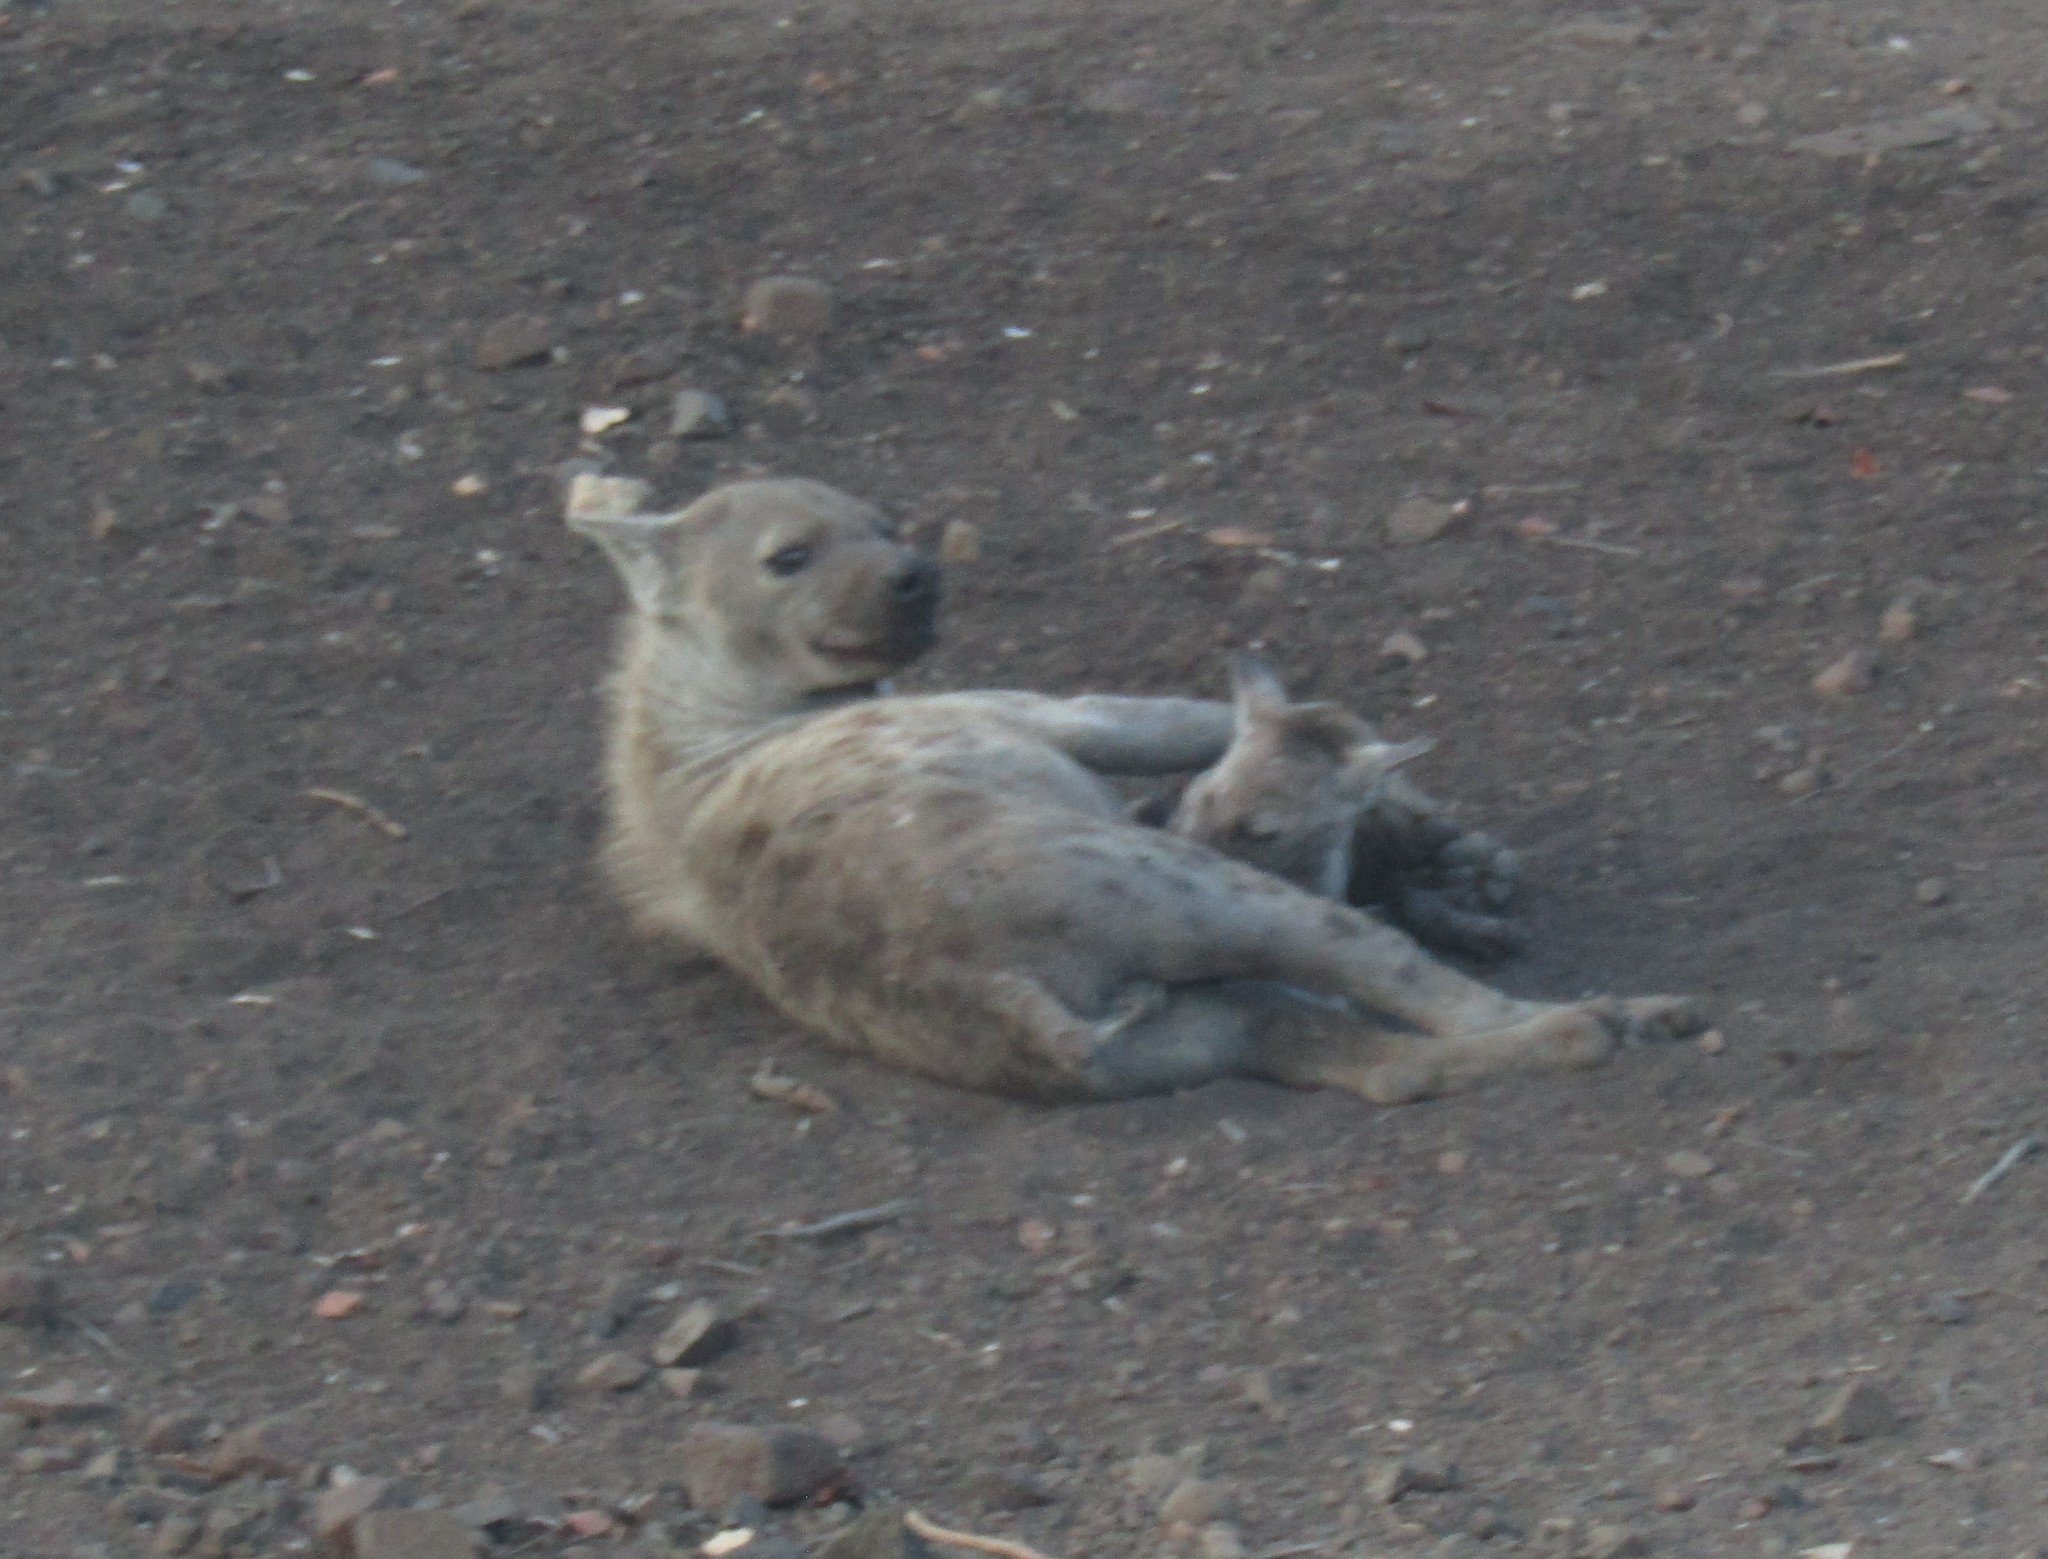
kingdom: Animalia
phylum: Chordata
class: Mammalia
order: Carnivora
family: Hyaenidae
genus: Crocuta
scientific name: Crocuta crocuta
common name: Spotted hyaena
